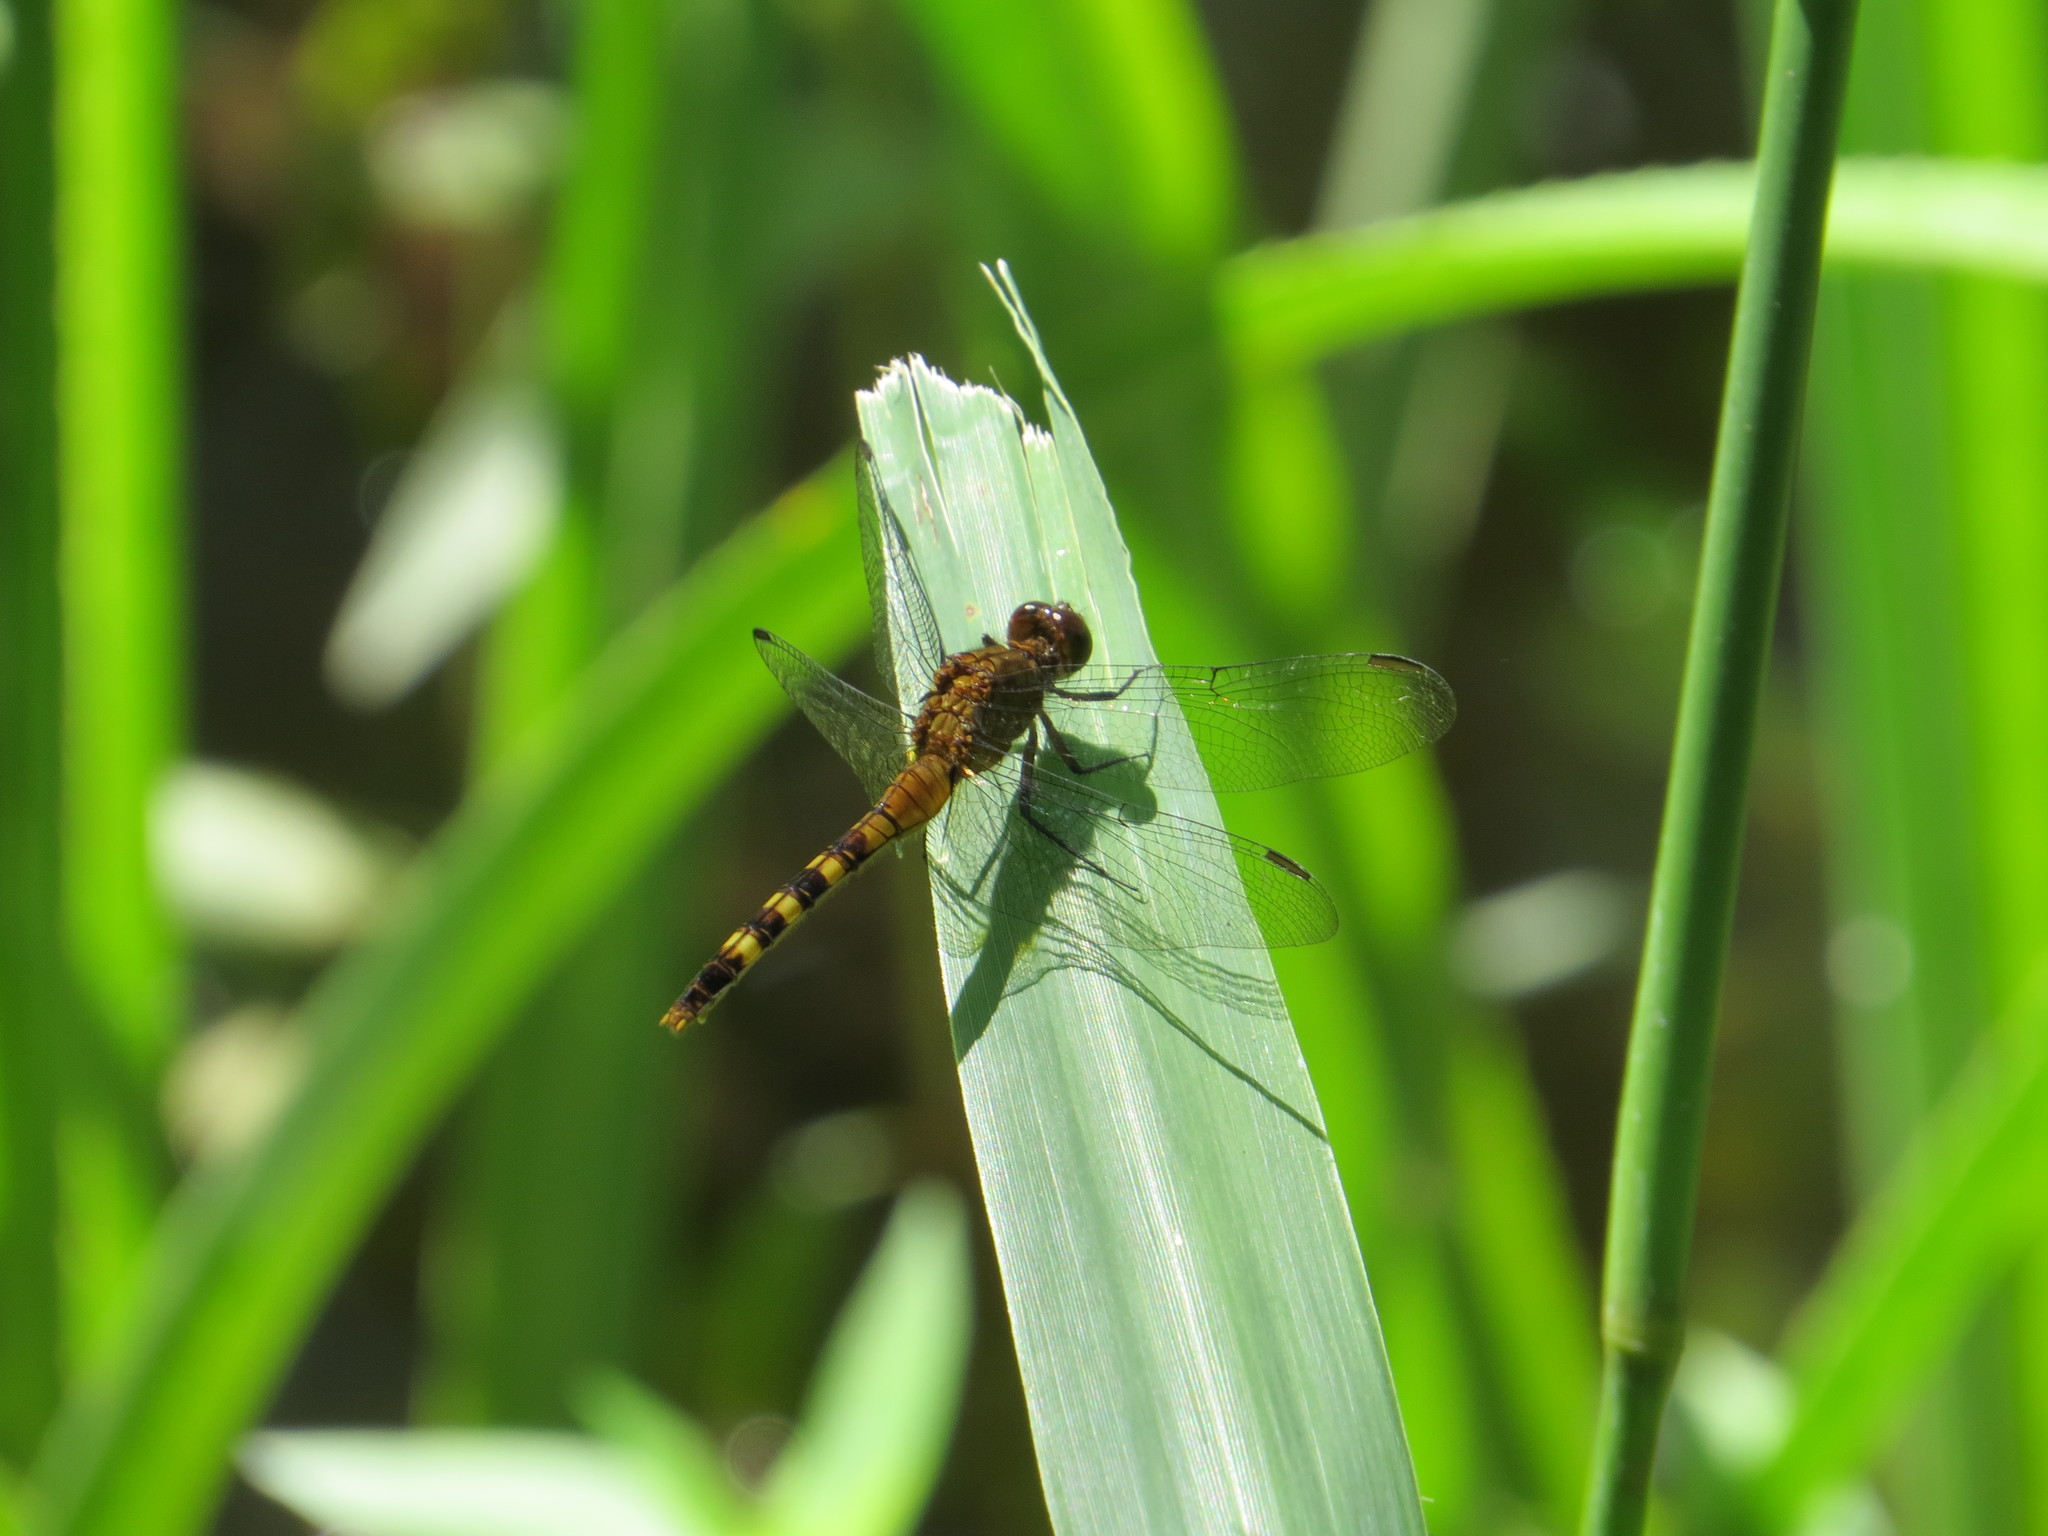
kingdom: Animalia
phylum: Arthropoda
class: Insecta
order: Odonata
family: Libellulidae
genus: Erythemis
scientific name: Erythemis attala
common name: Black pondhawk
